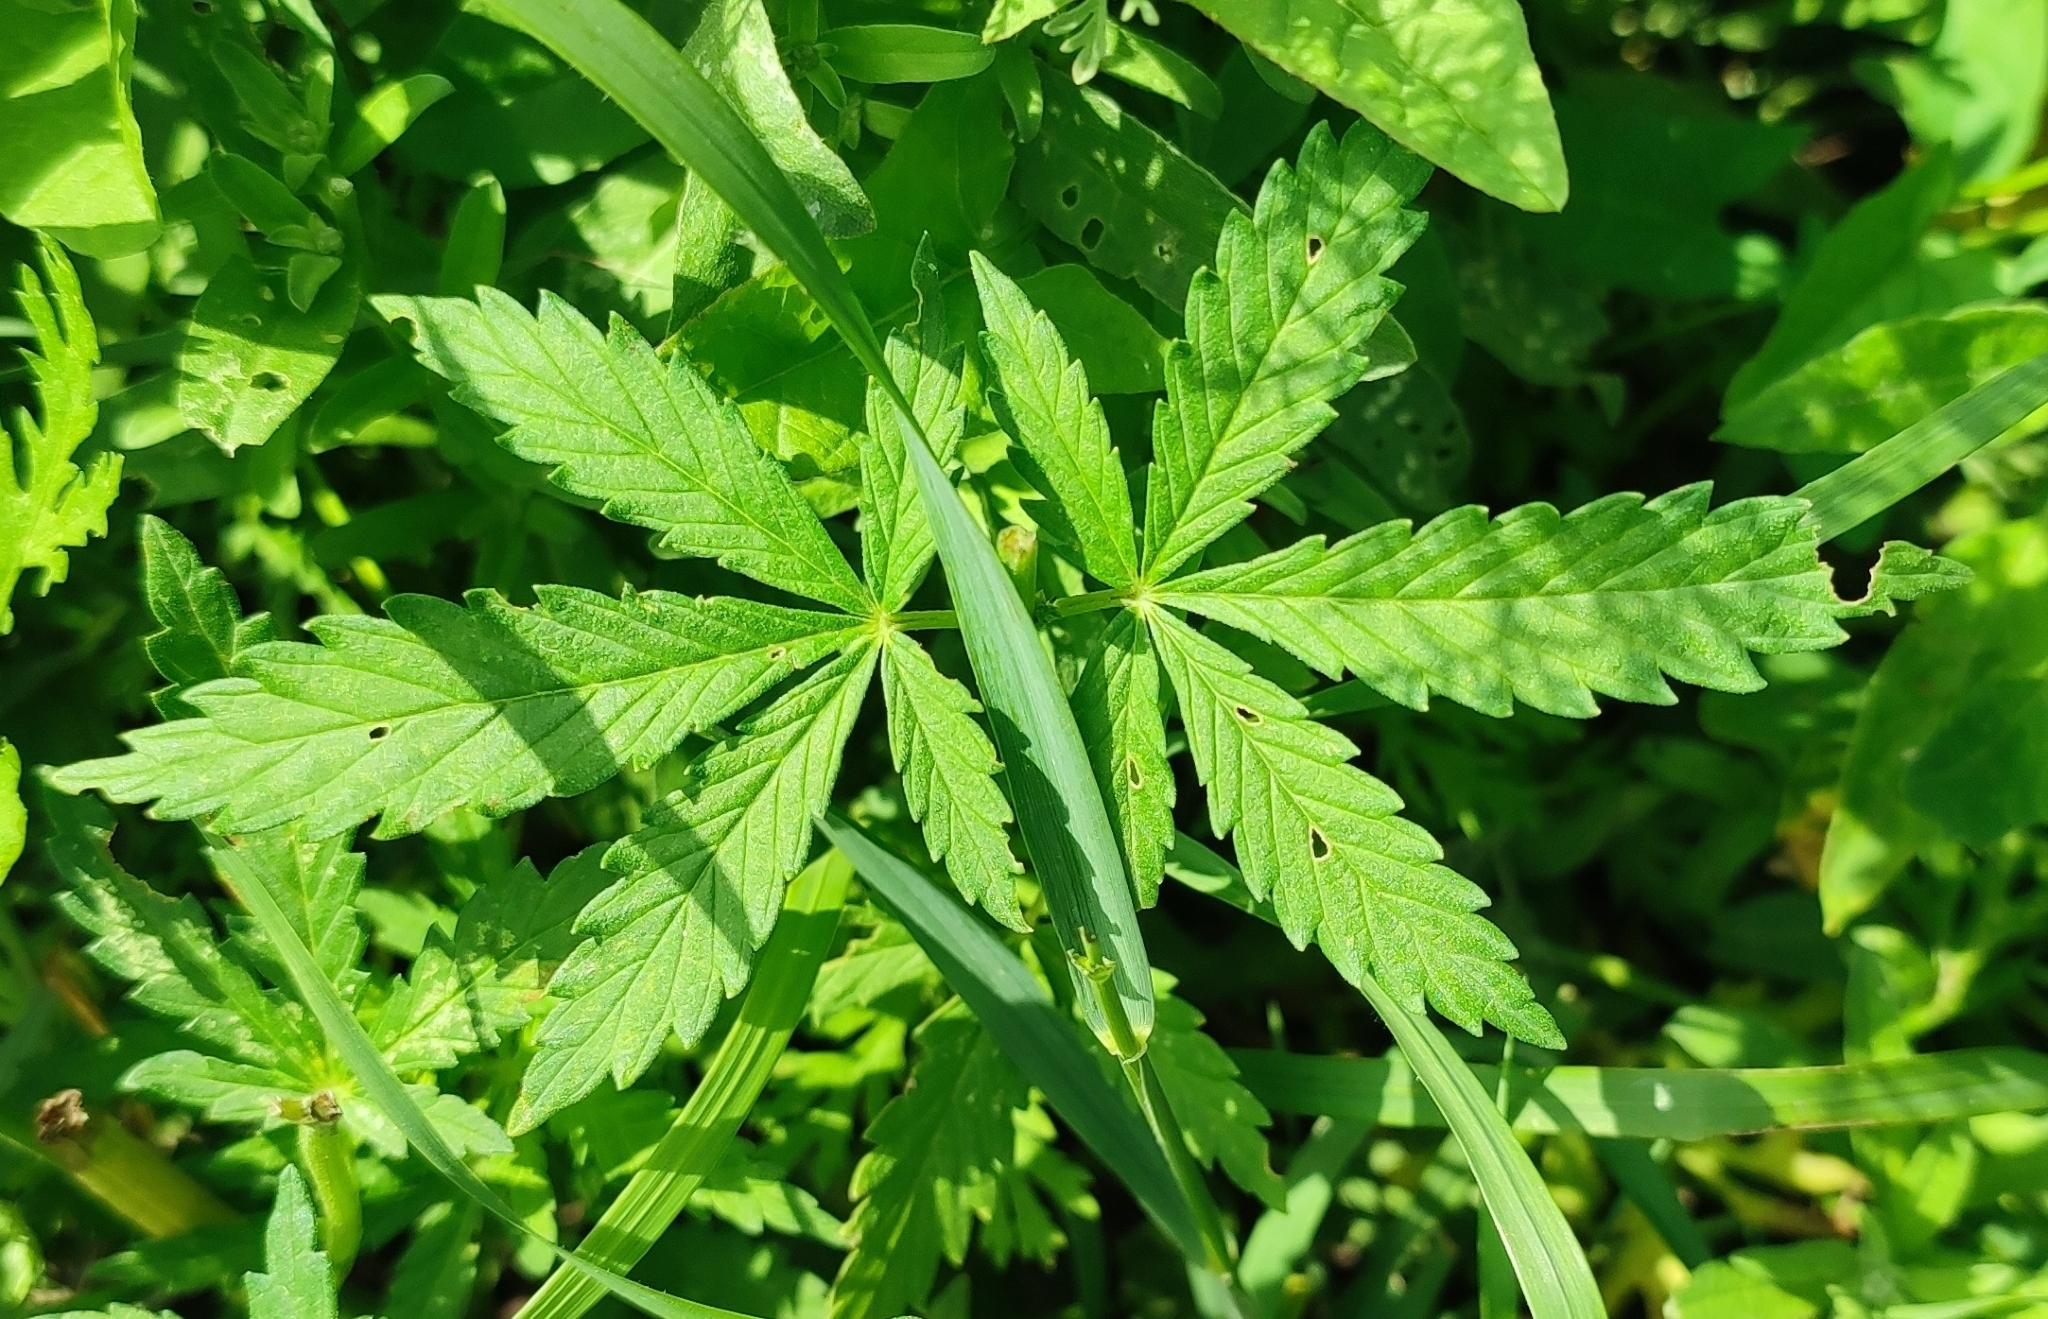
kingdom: Plantae
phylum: Tracheophyta
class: Magnoliopsida
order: Rosales
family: Cannabaceae
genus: Cannabis
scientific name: Cannabis sativa
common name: Hemp
